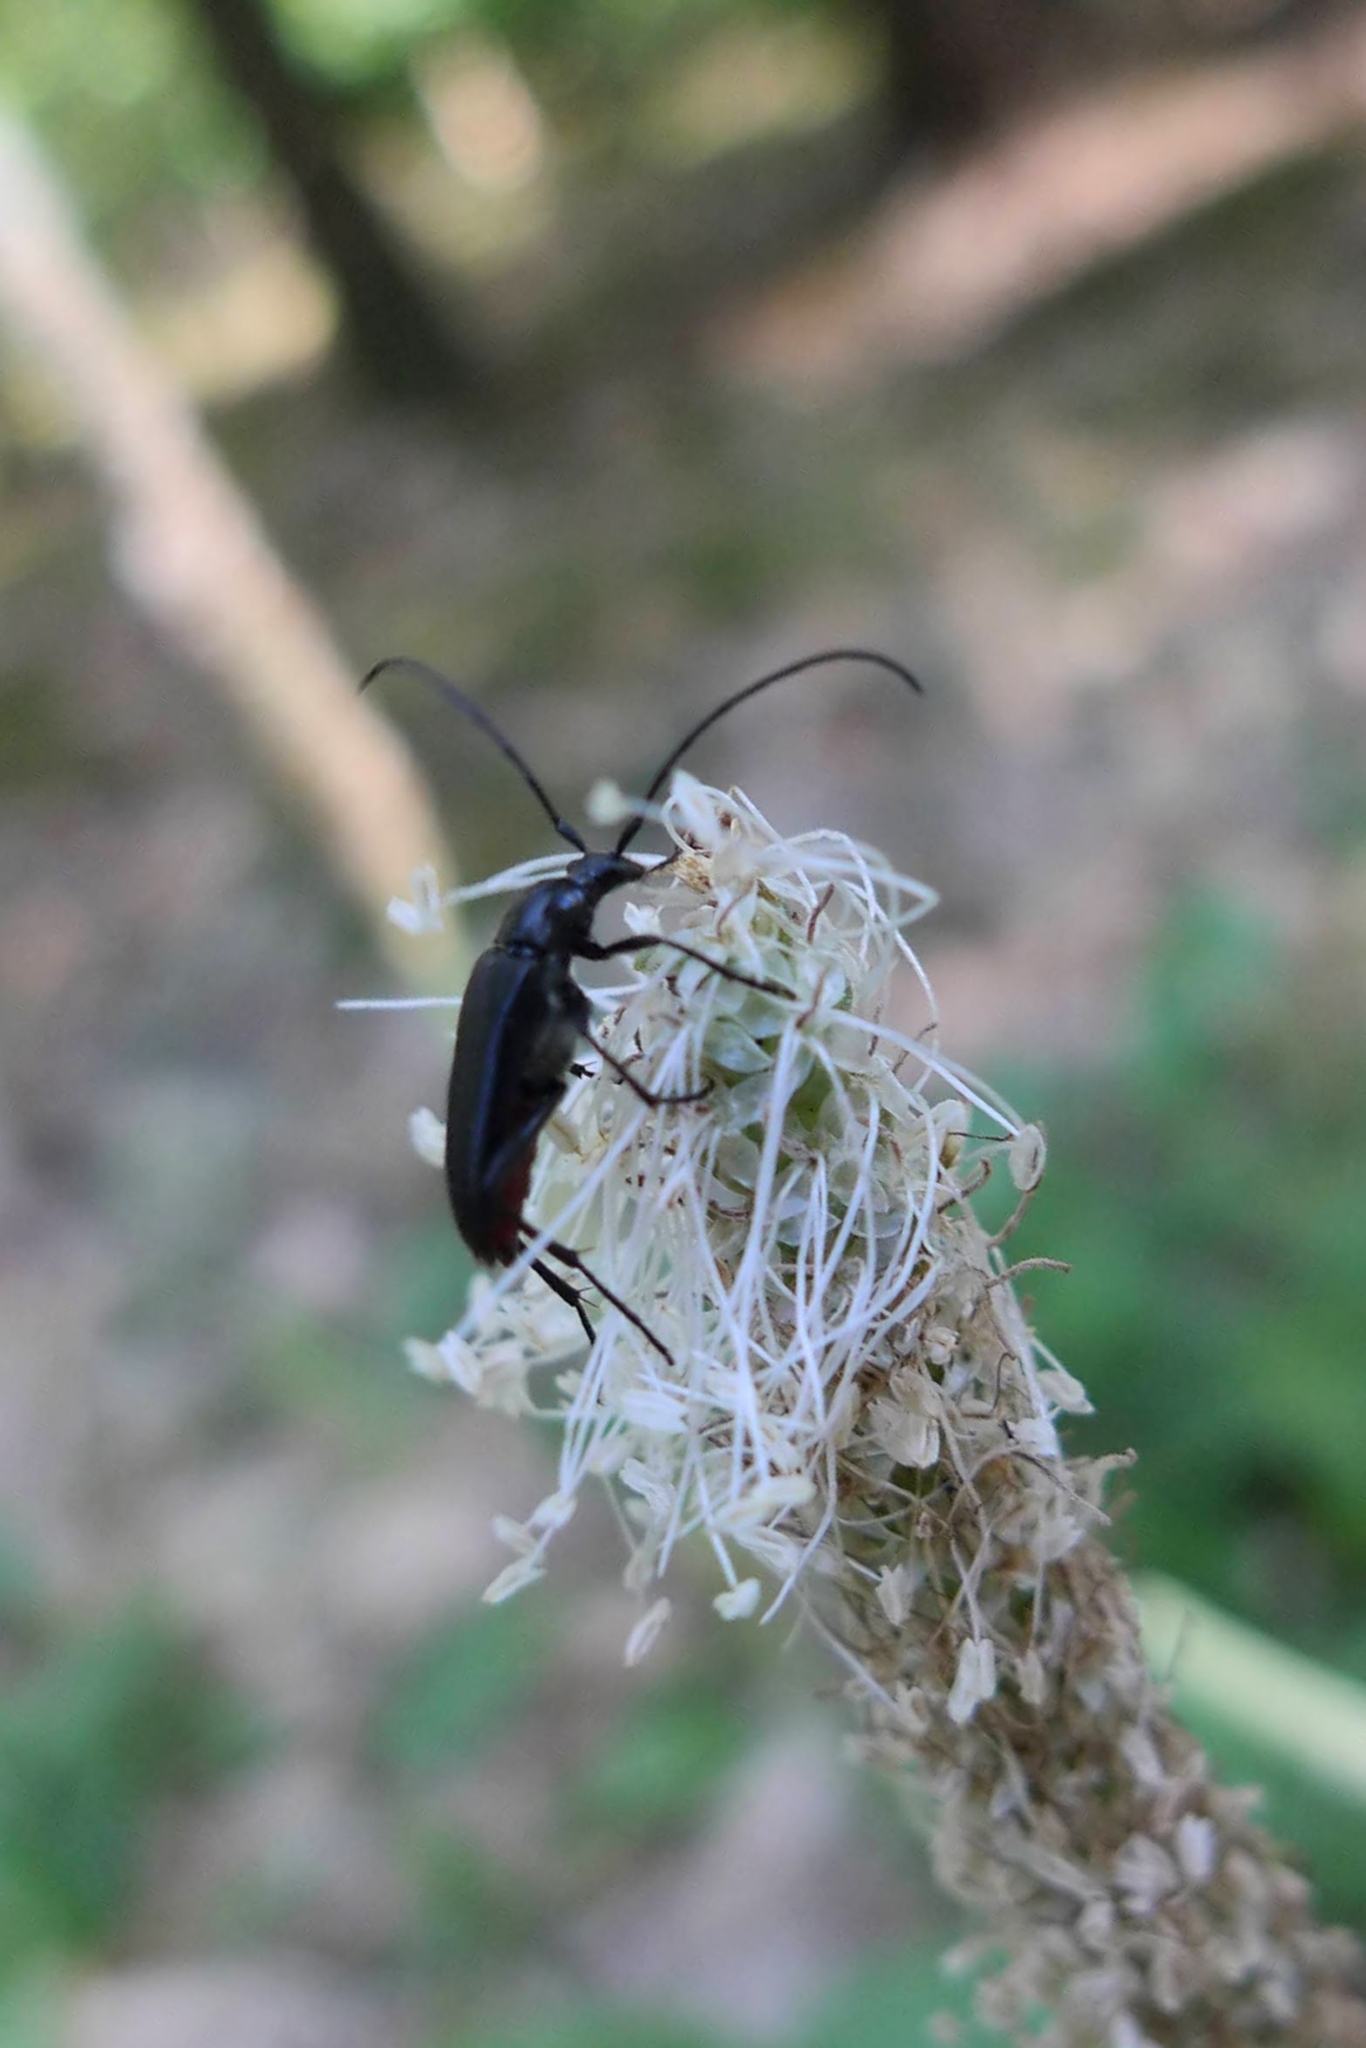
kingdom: Animalia
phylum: Arthropoda
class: Insecta
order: Coleoptera
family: Cerambycidae
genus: Stenurella
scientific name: Stenurella nigra
